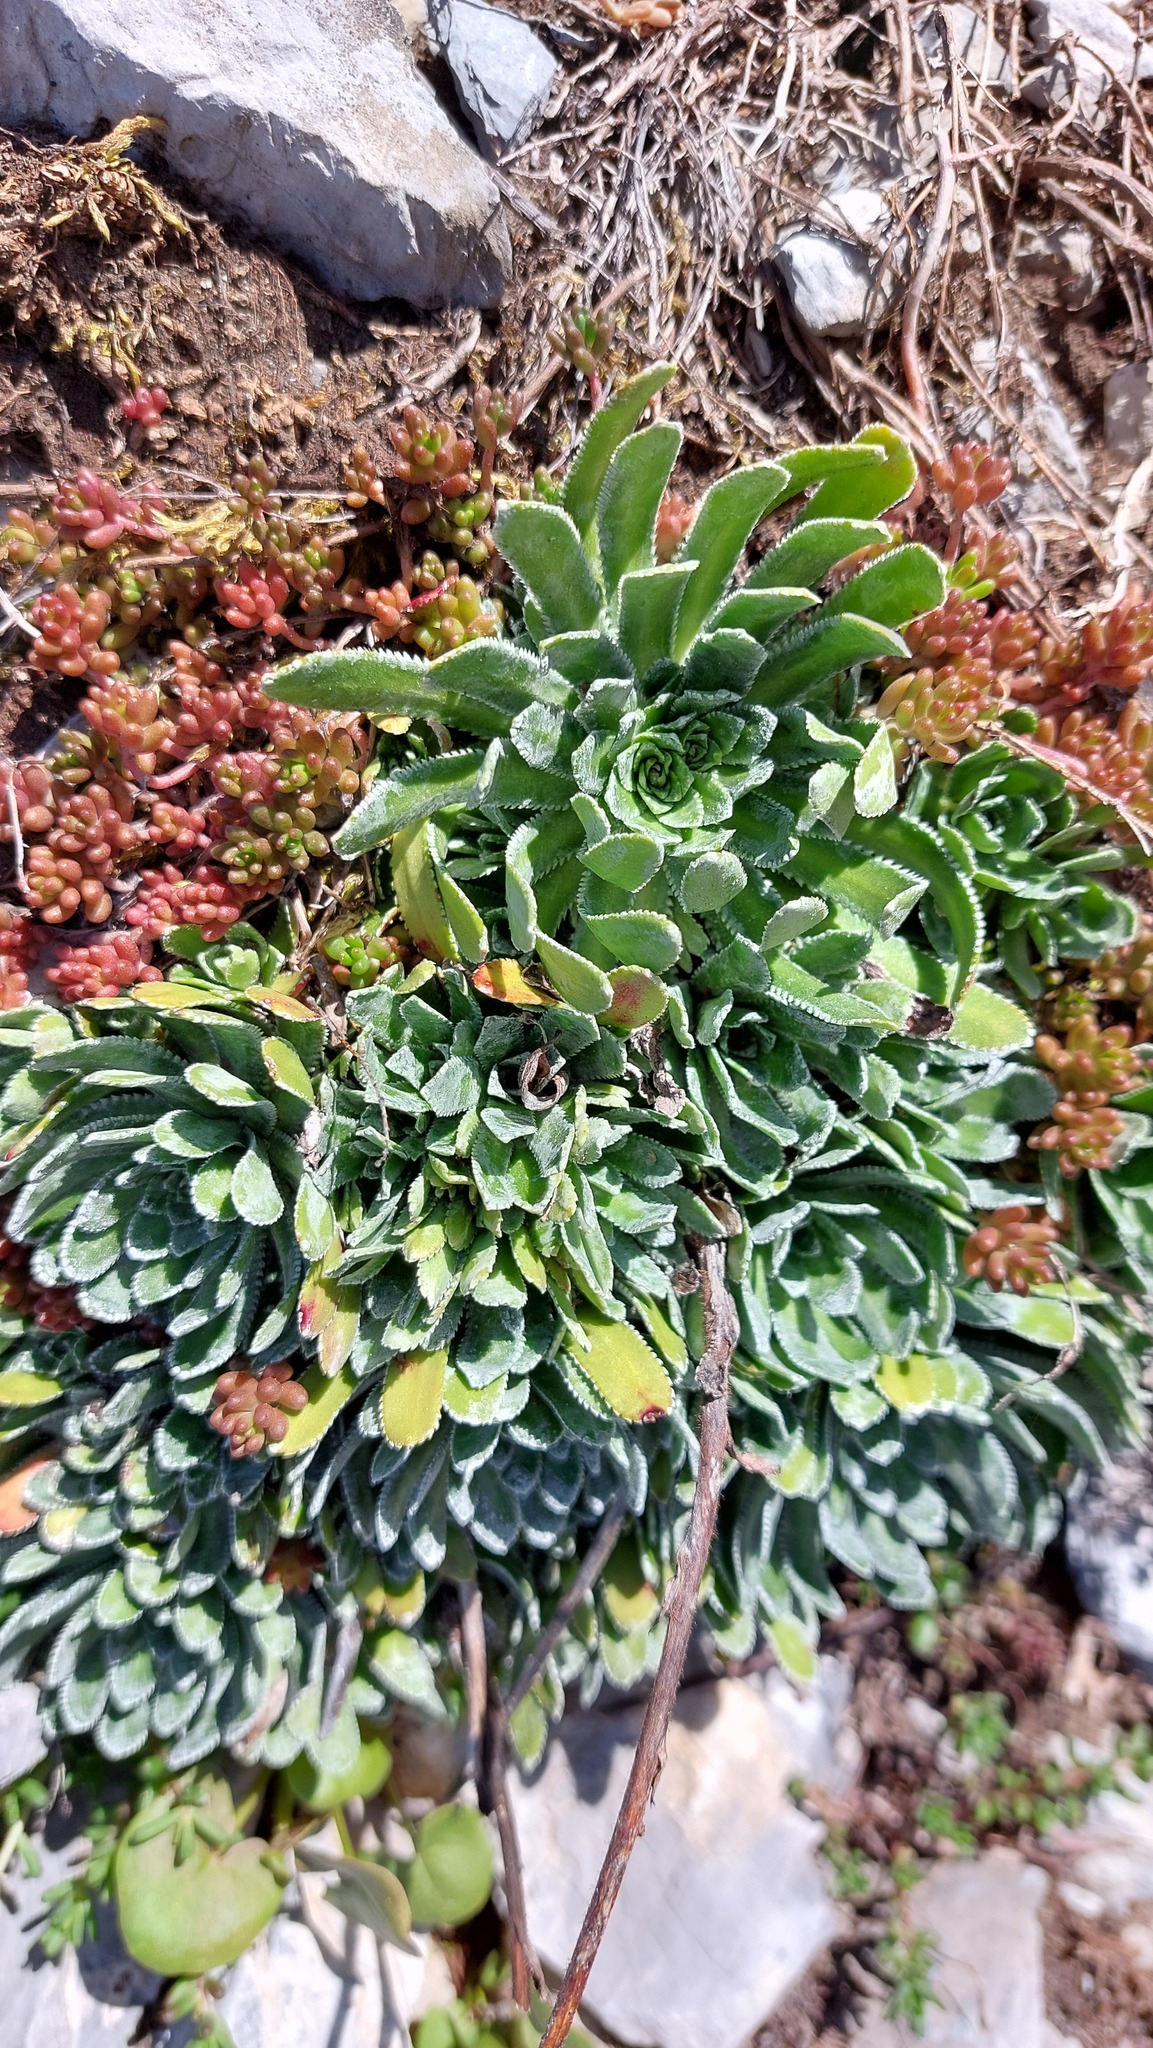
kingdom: Plantae
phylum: Tracheophyta
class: Magnoliopsida
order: Saxifragales
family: Saxifragaceae
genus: Saxifraga
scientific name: Saxifraga paniculata
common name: Livelong saxifrage
